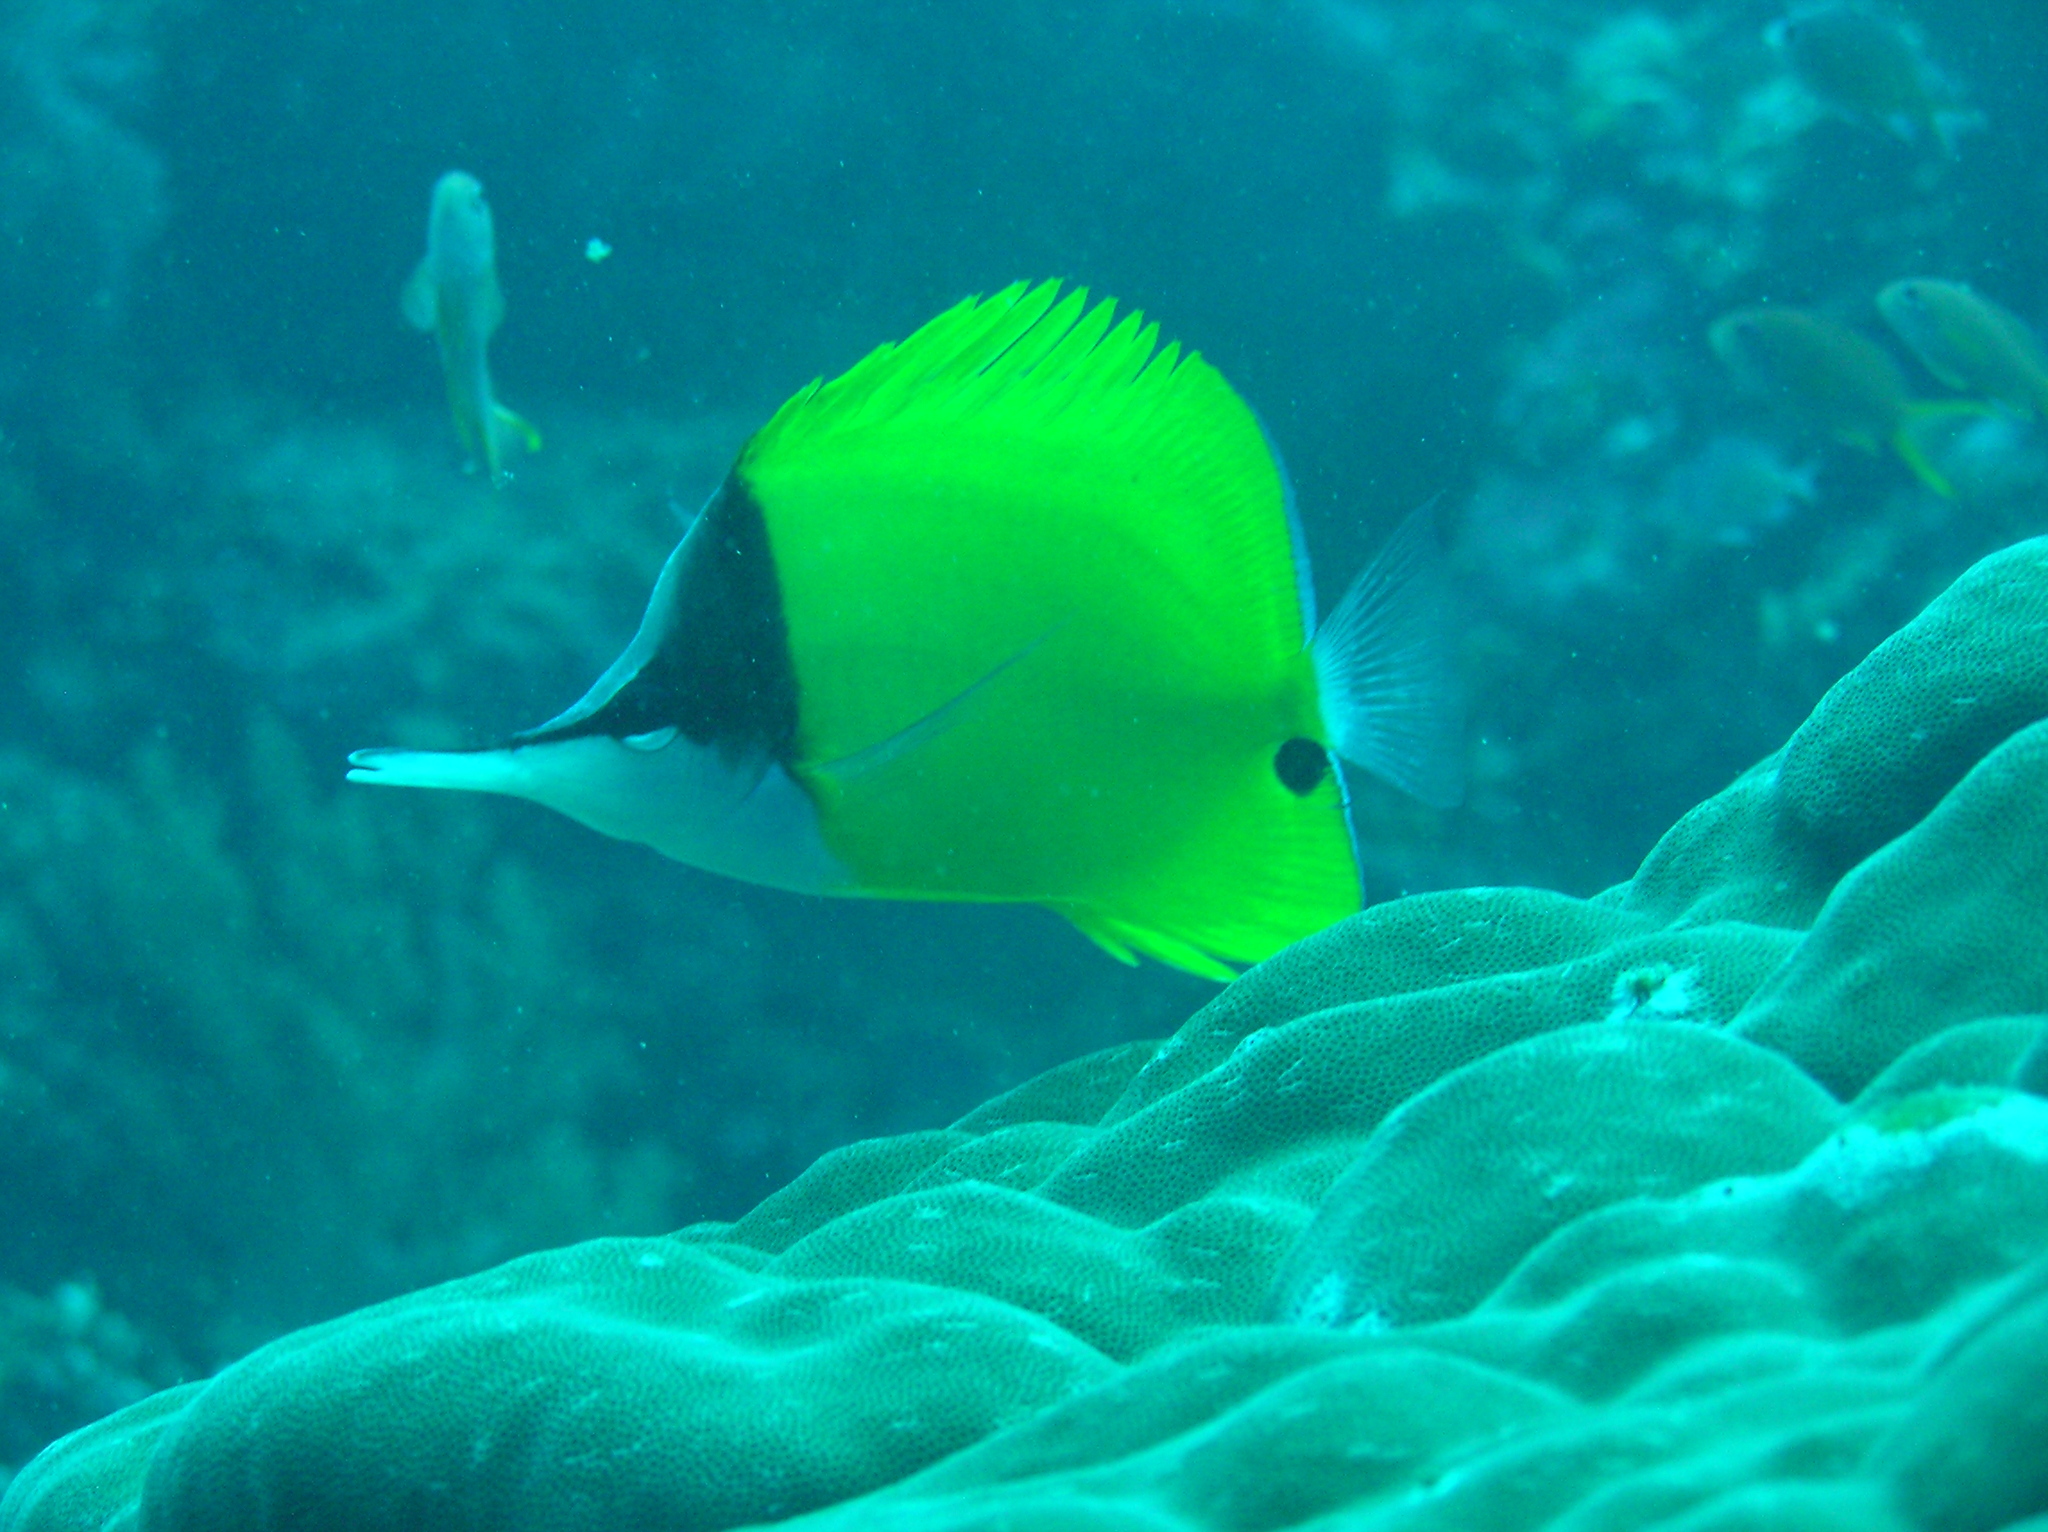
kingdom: Animalia
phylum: Chordata
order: Perciformes
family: Chaetodontidae
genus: Forcipiger
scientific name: Forcipiger flavissimus
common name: Forcepsfish
